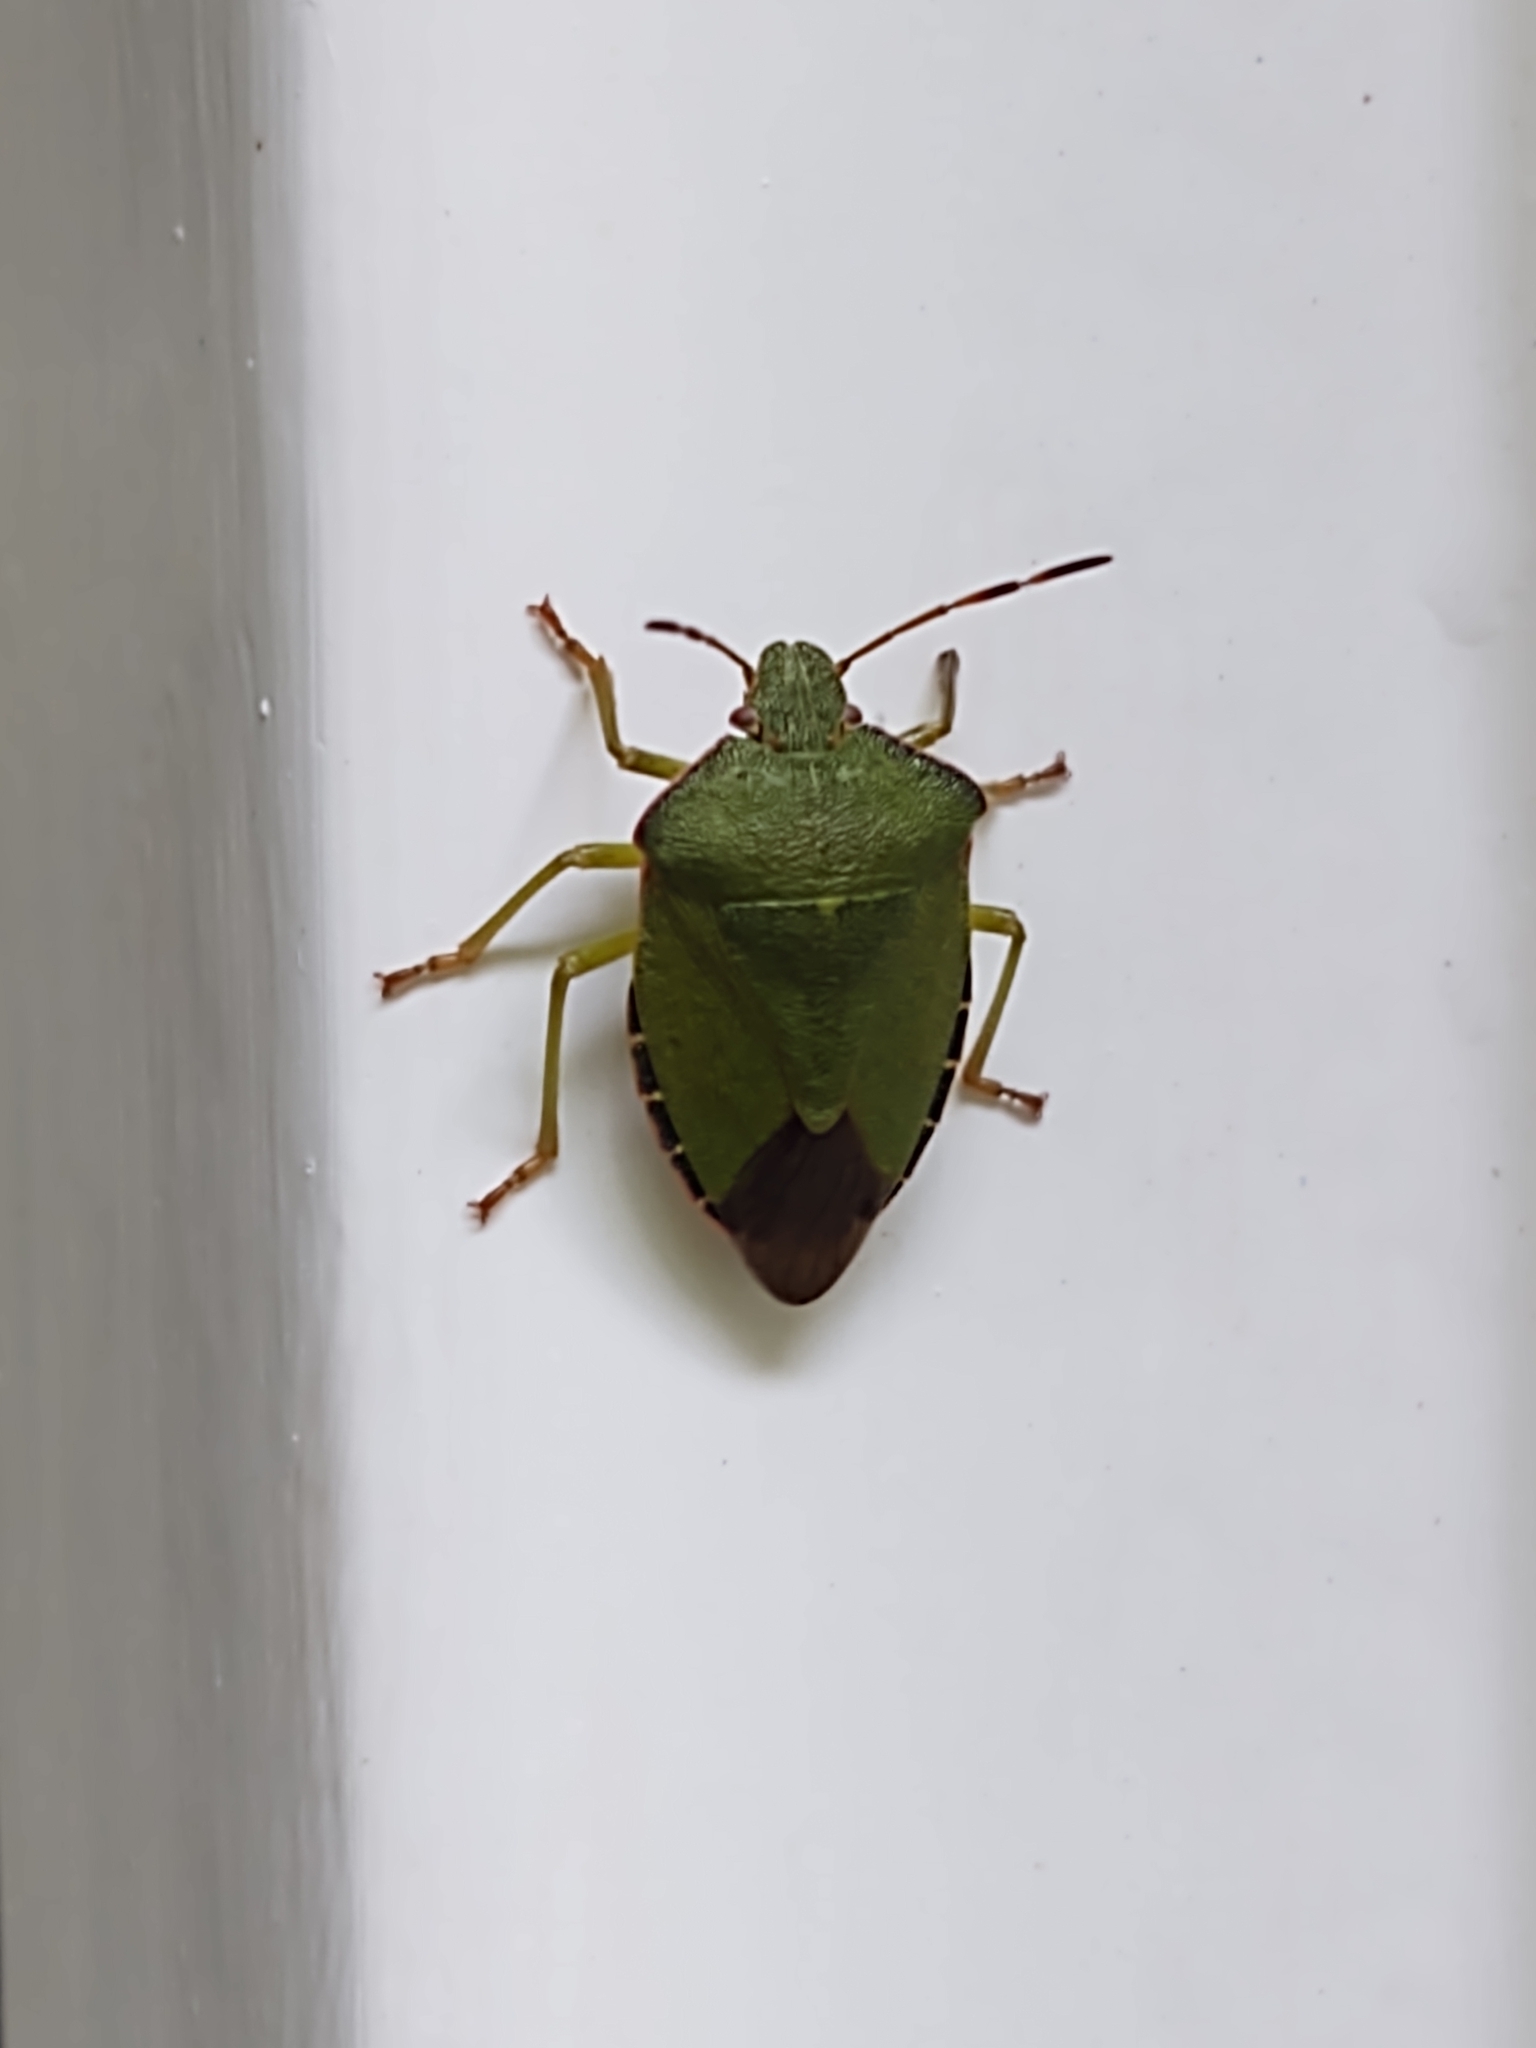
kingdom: Animalia
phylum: Arthropoda
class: Insecta
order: Hemiptera
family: Pentatomidae
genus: Palomena
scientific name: Palomena prasina
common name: Green shieldbug
